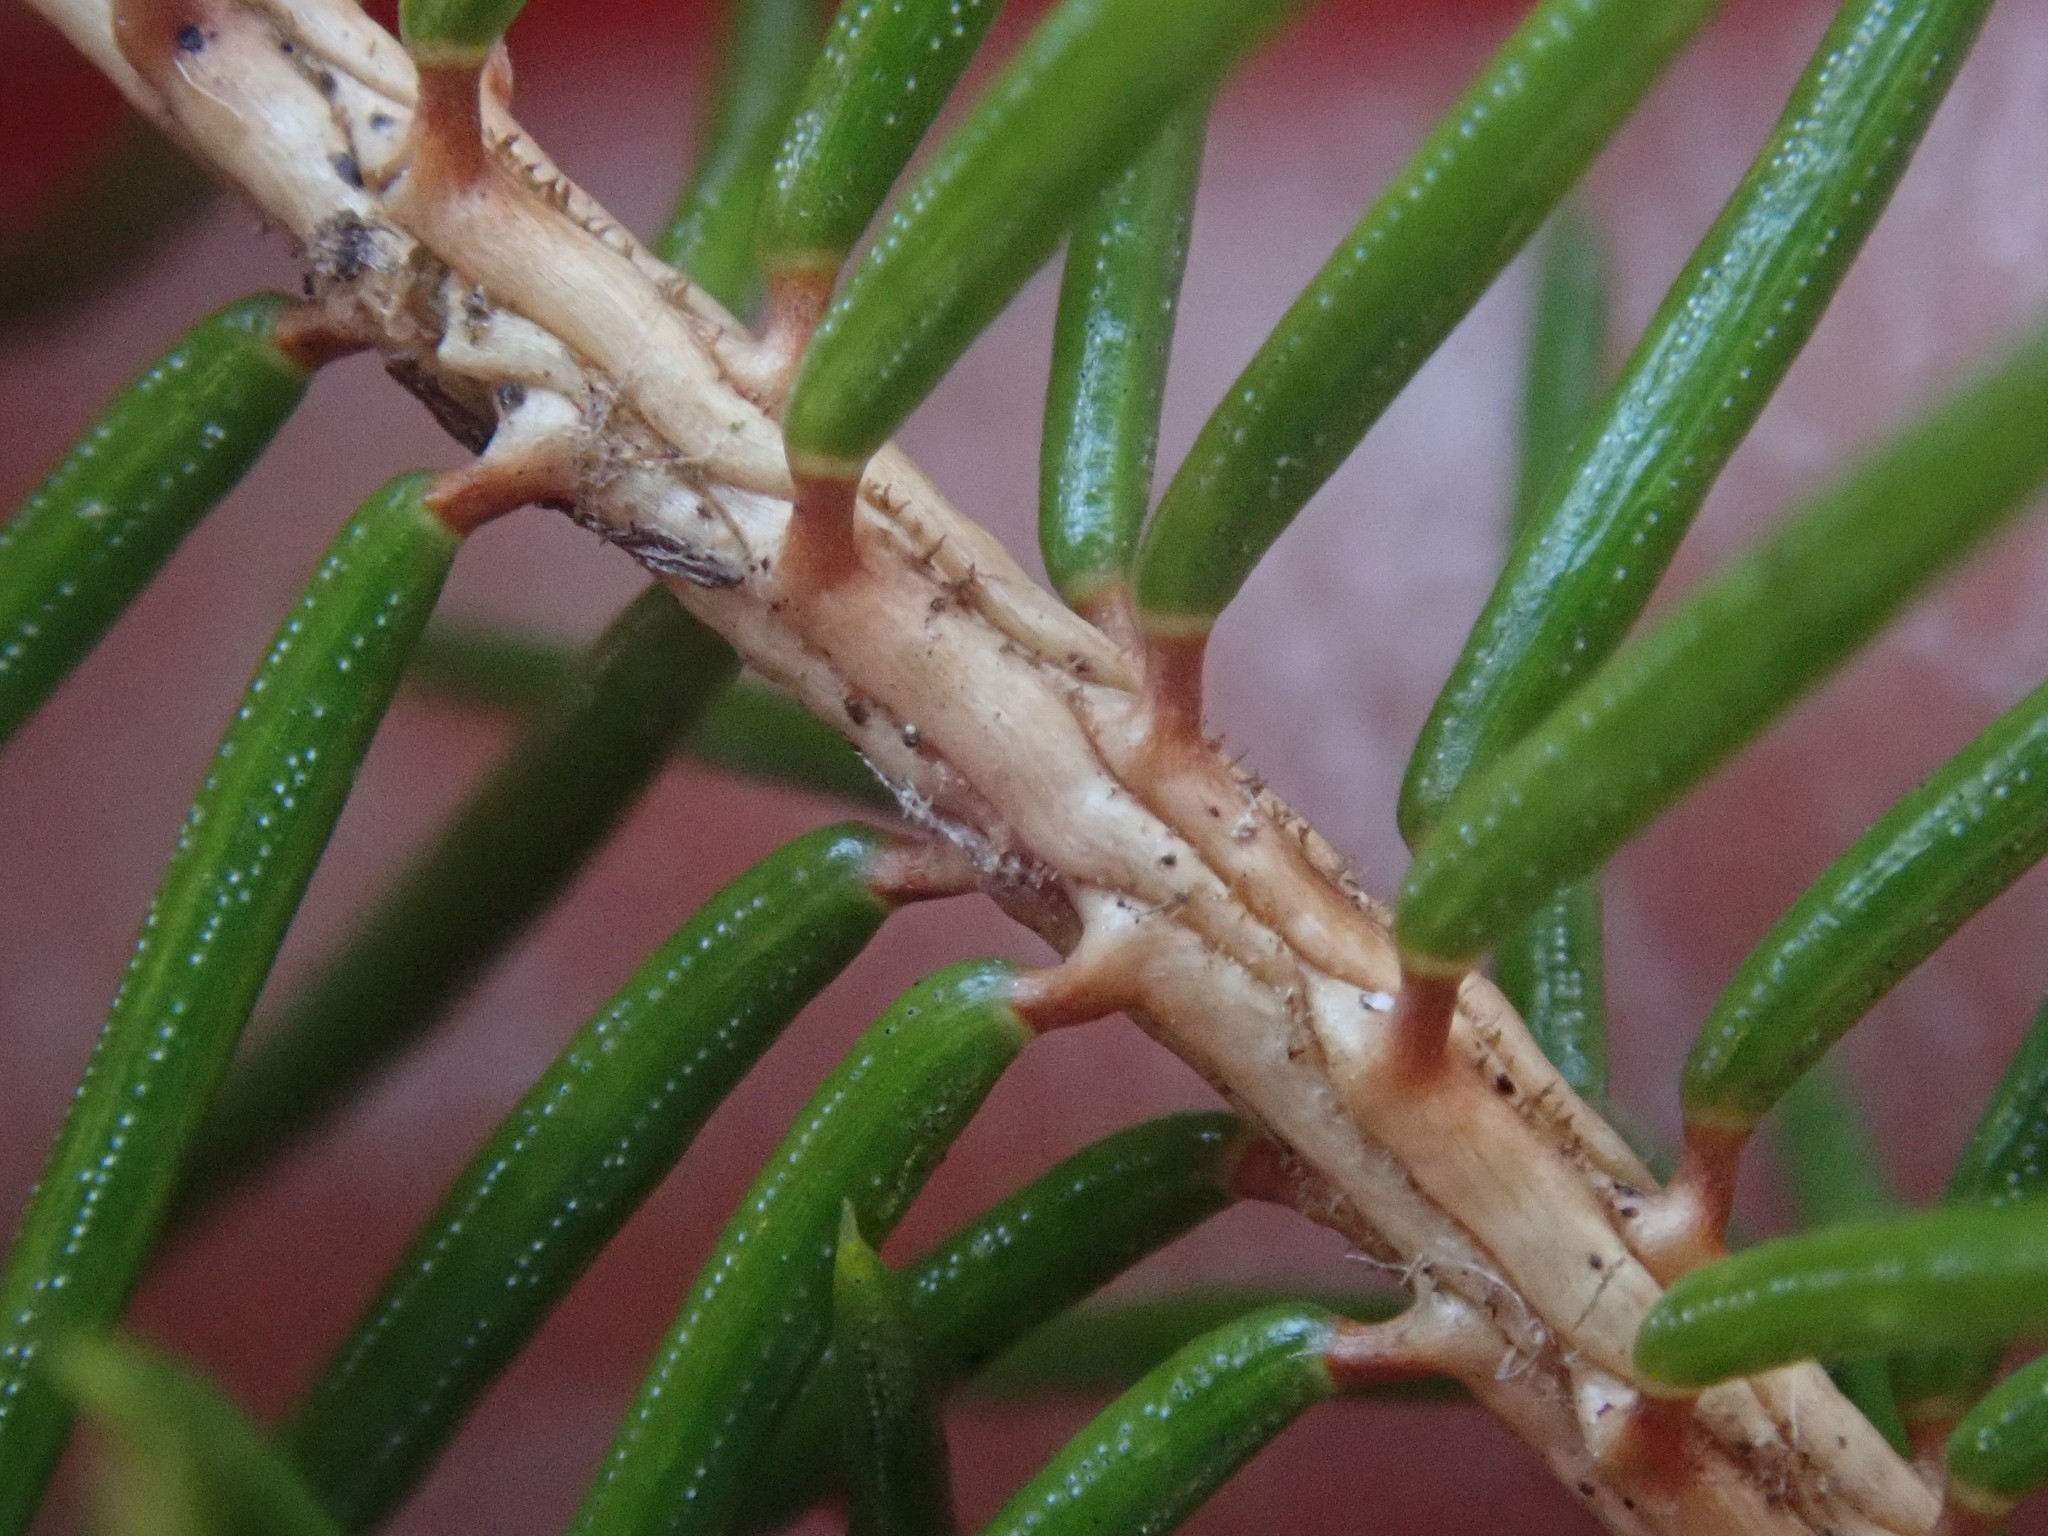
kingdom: Plantae
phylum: Tracheophyta
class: Pinopsida
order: Pinales
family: Pinaceae
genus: Picea
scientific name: Picea abies
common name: Norway spruce
